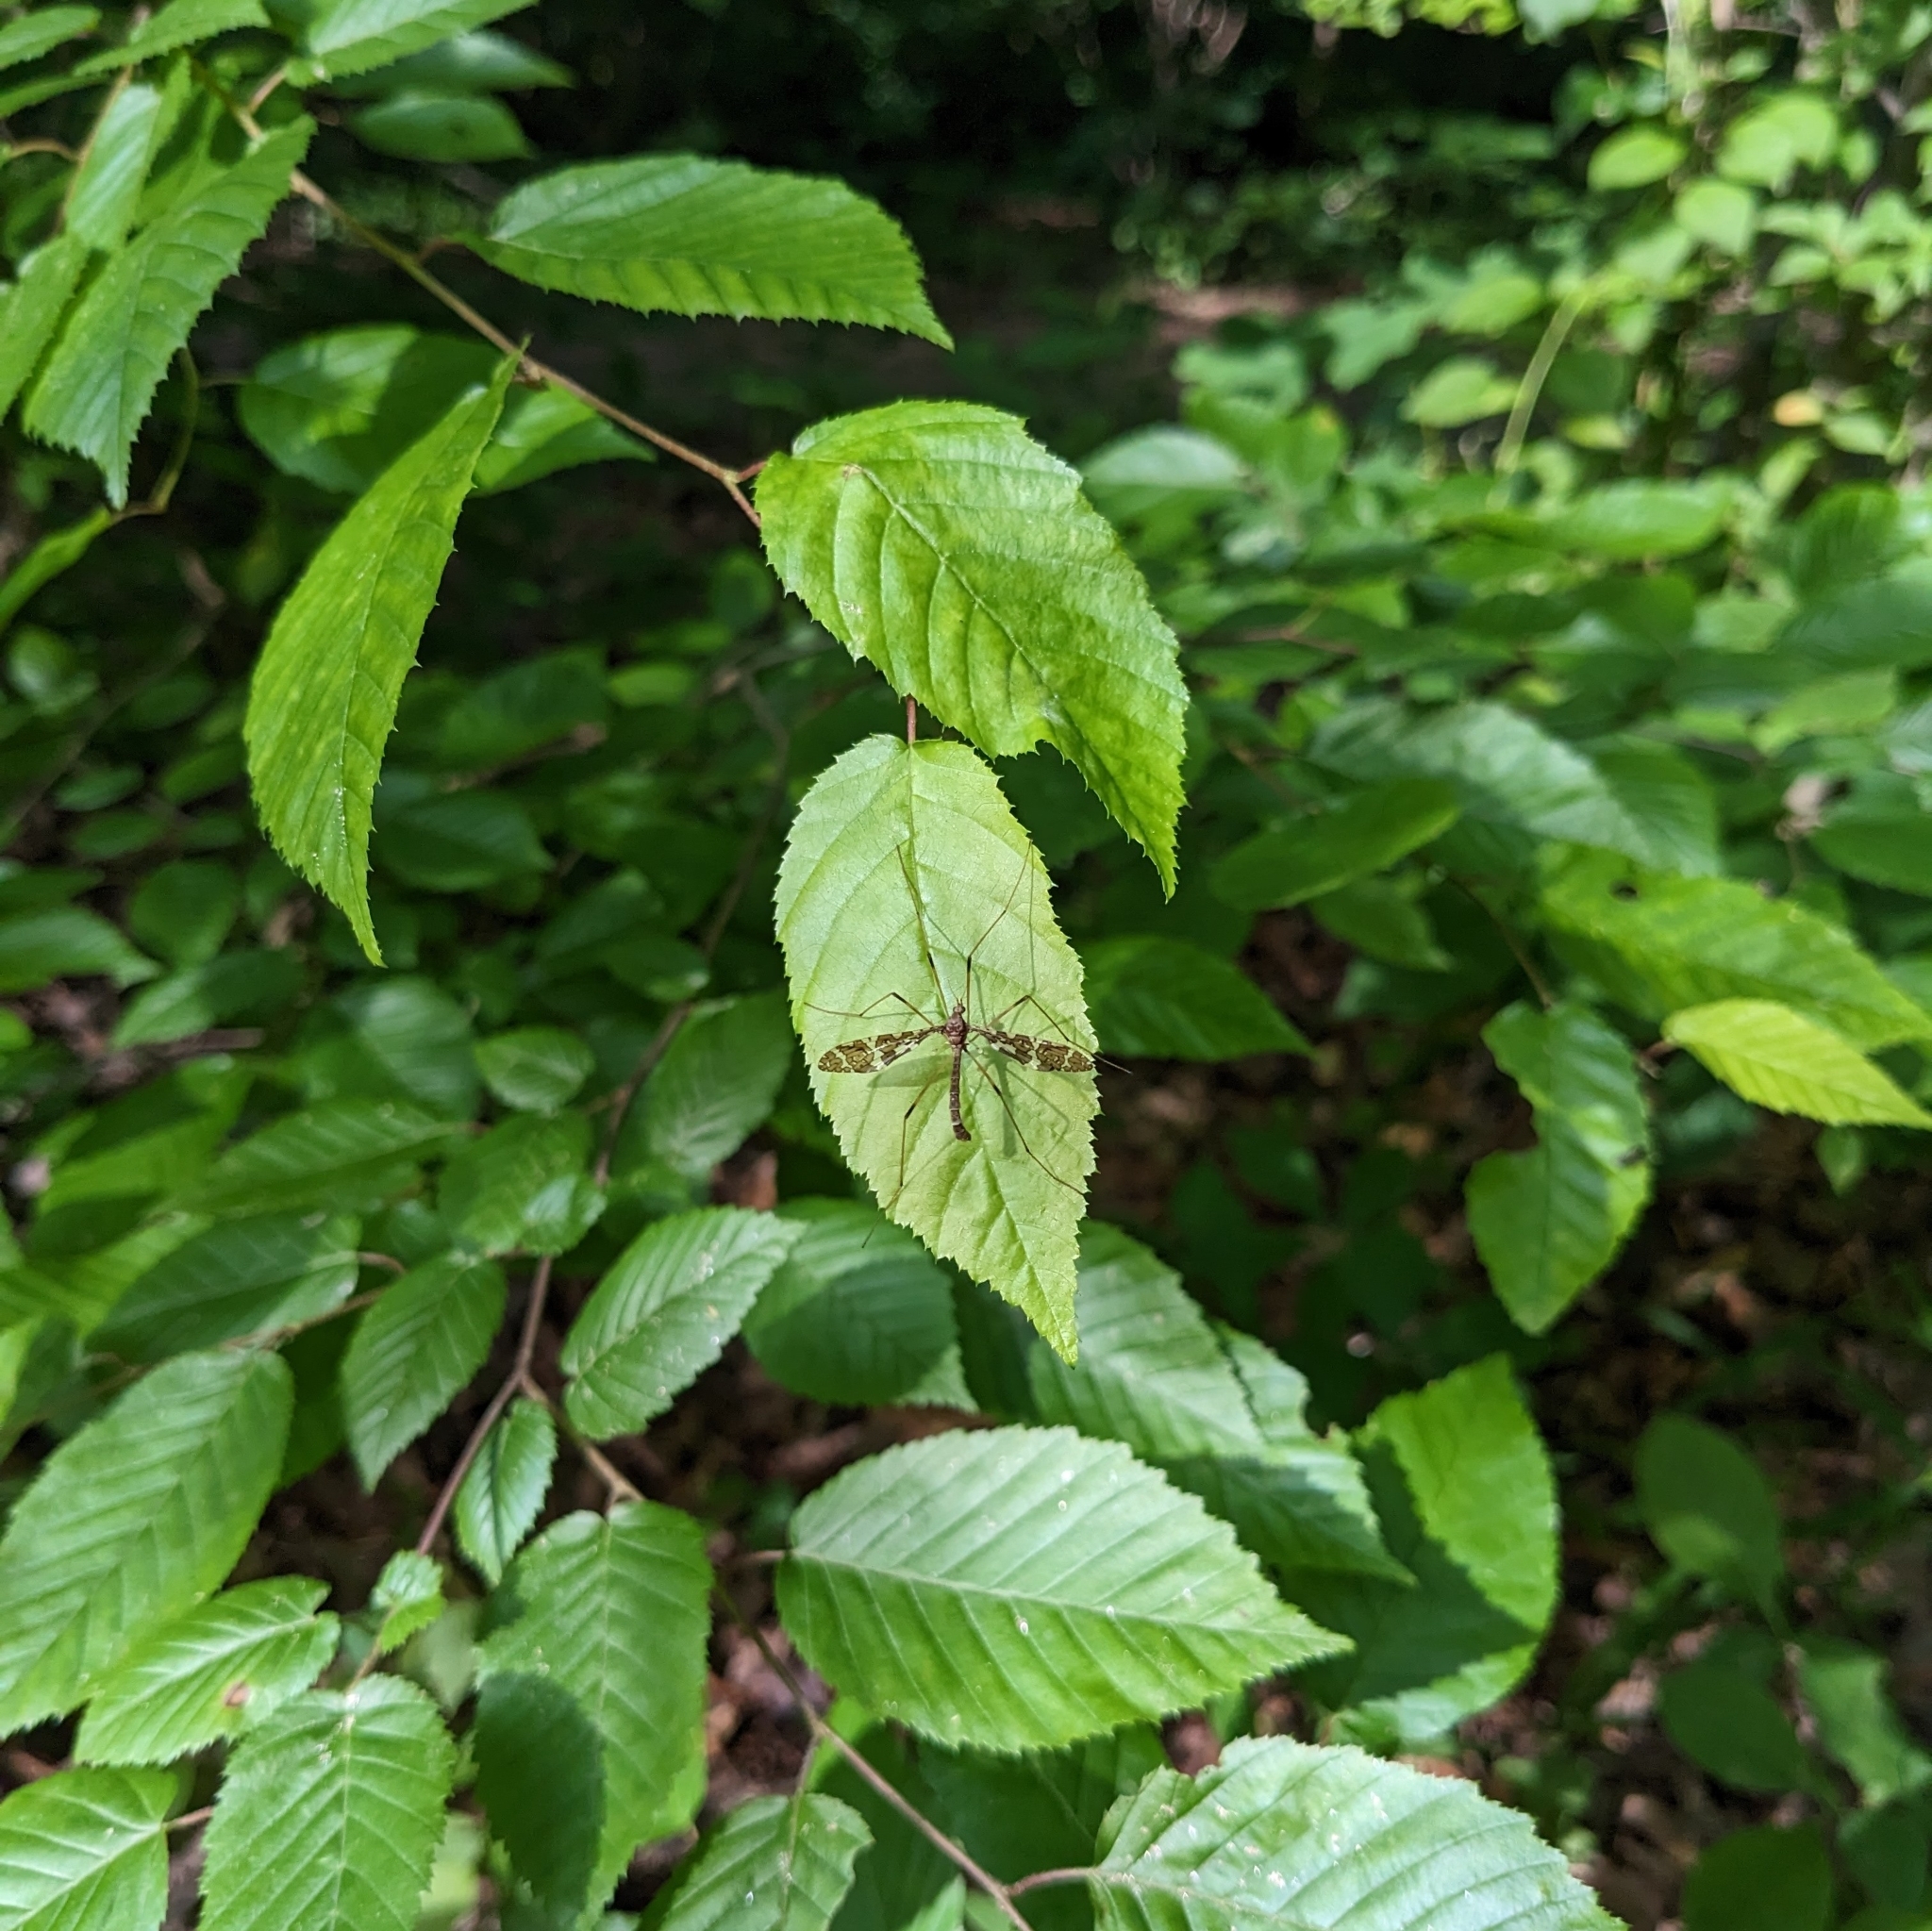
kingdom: Animalia
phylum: Arthropoda
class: Insecta
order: Diptera
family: Limoniidae
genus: Epiphragma
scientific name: Epiphragma fasciapenne
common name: Band-winged crane fly
